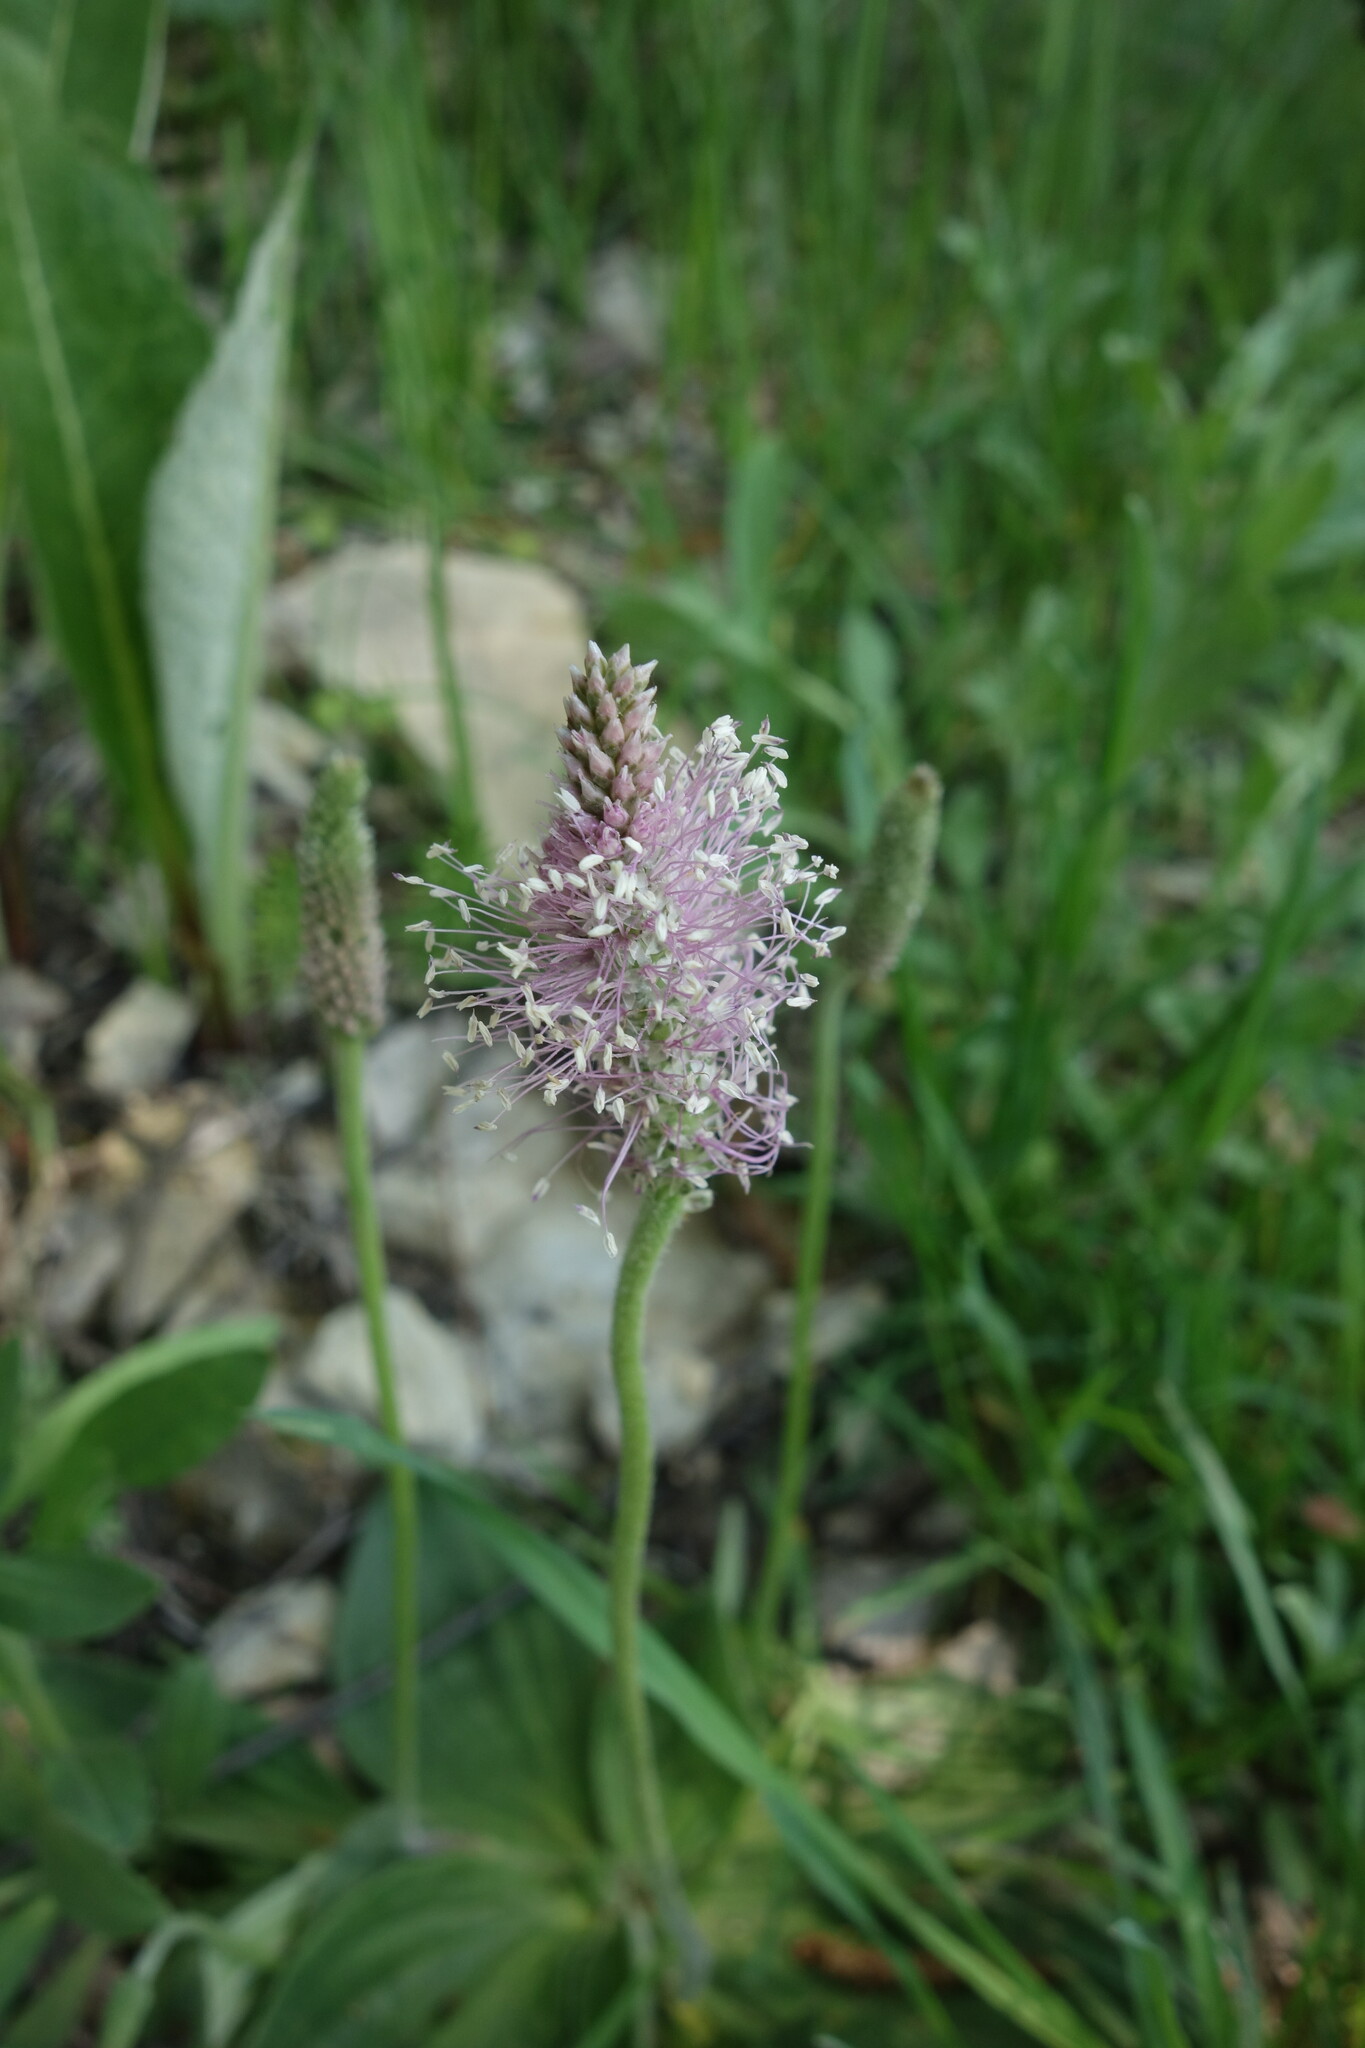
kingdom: Plantae
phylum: Tracheophyta
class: Magnoliopsida
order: Lamiales
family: Plantaginaceae
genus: Plantago
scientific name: Plantago media
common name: Hoary plantain
